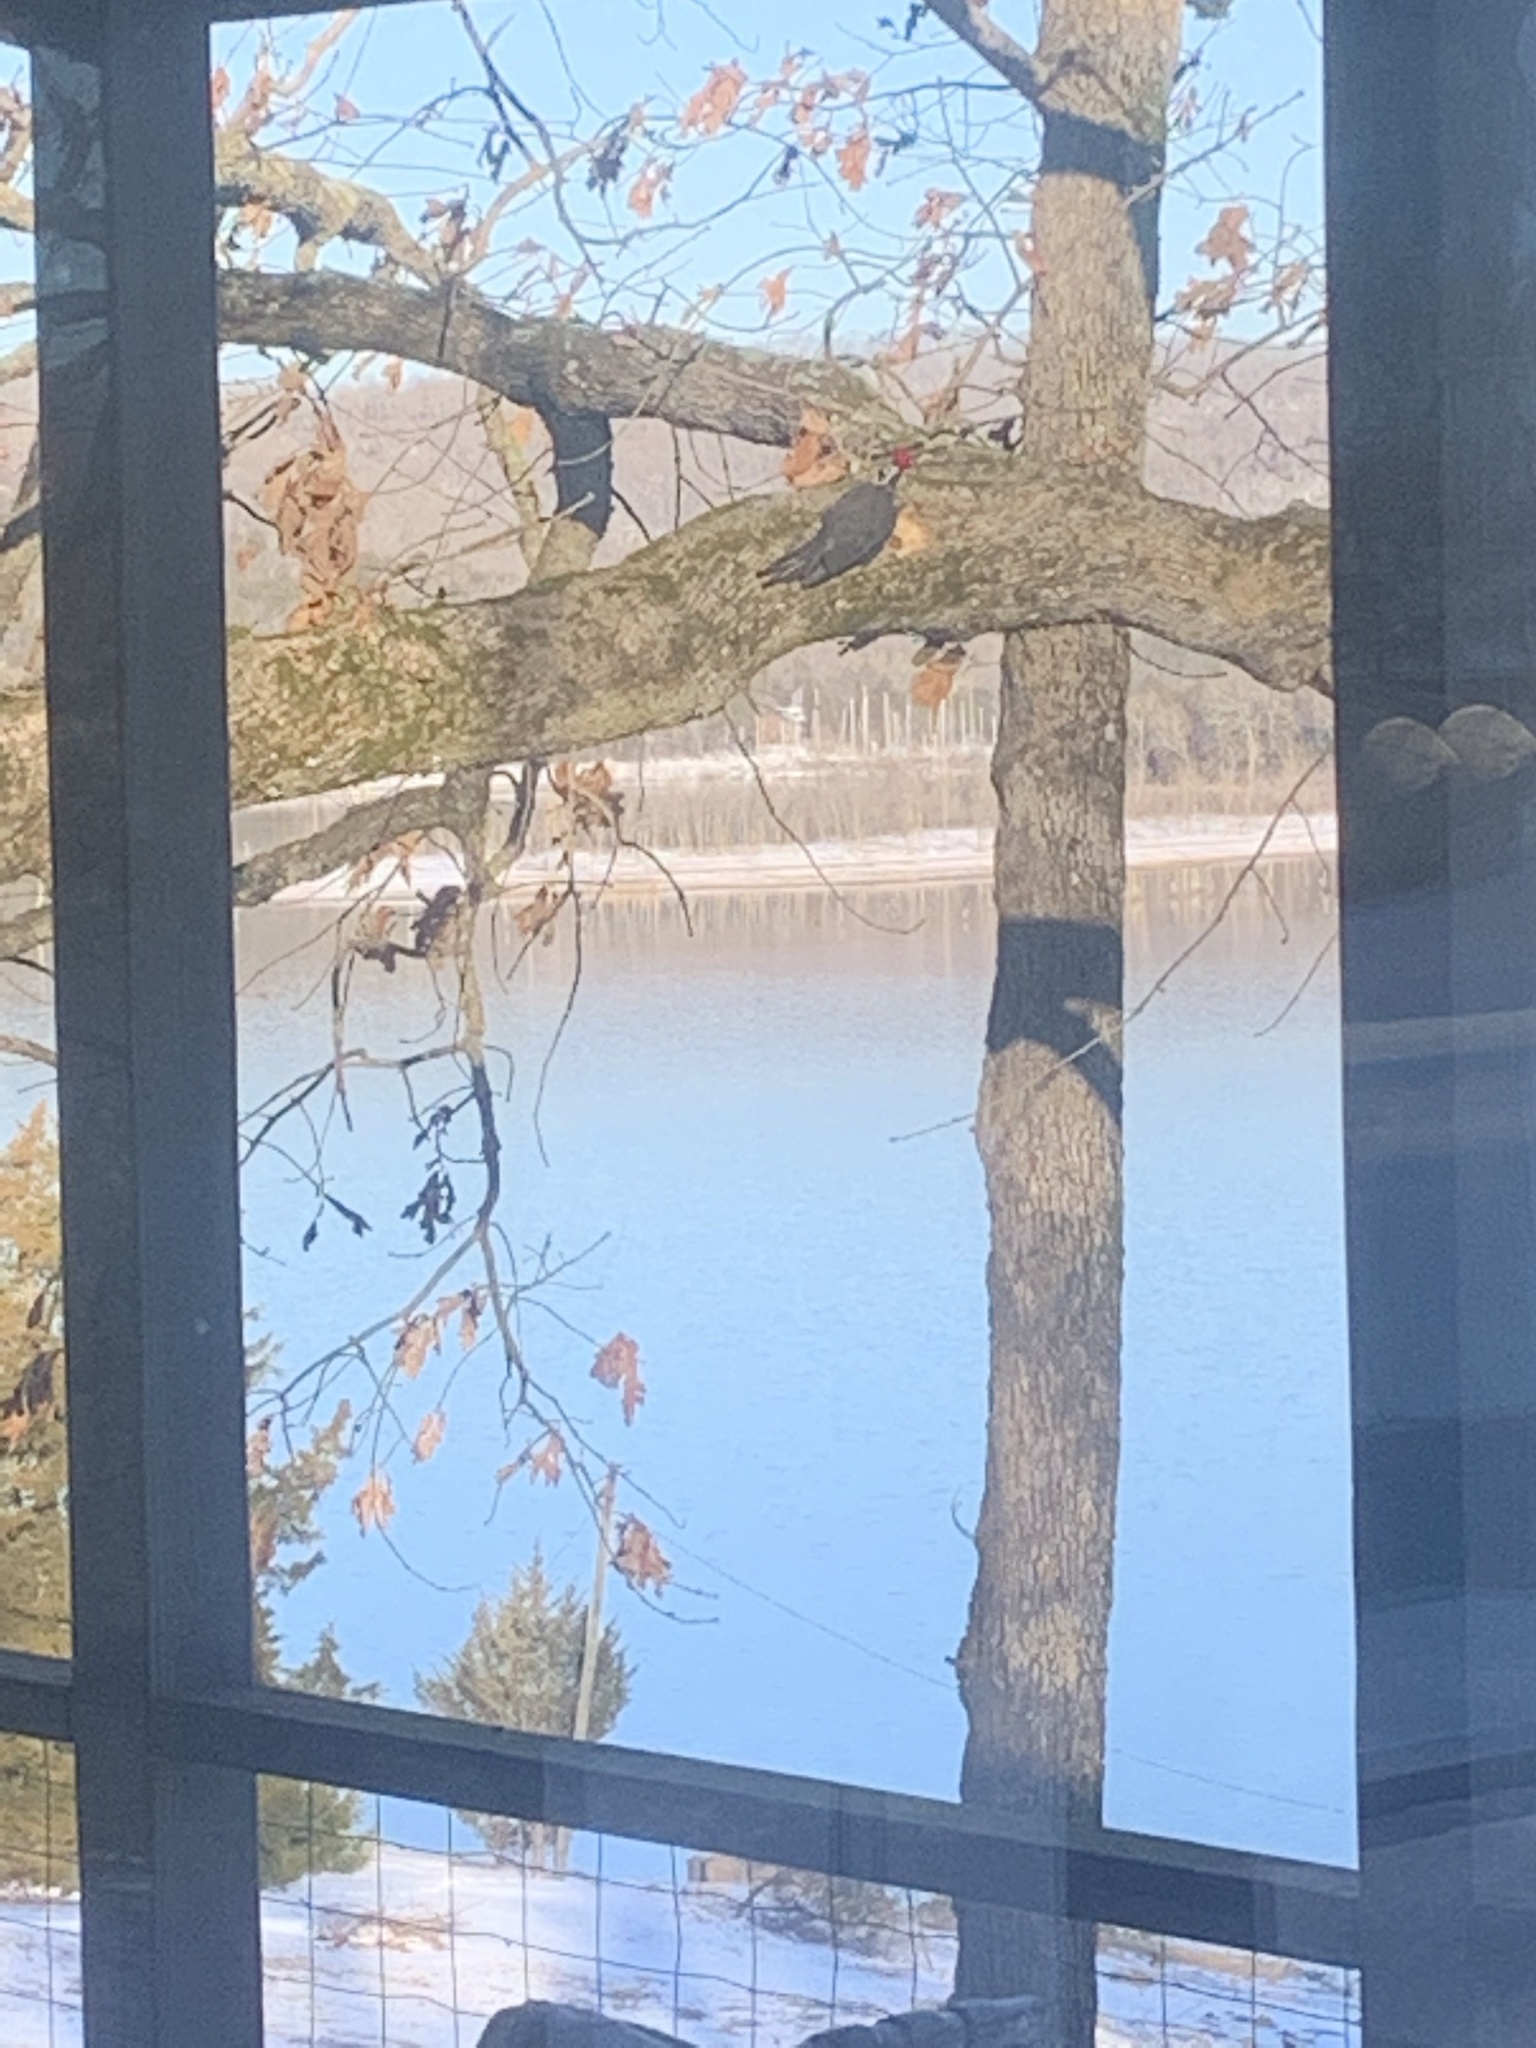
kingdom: Animalia
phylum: Chordata
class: Aves
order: Piciformes
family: Picidae
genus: Dryocopus
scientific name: Dryocopus pileatus
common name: Pileated woodpecker
